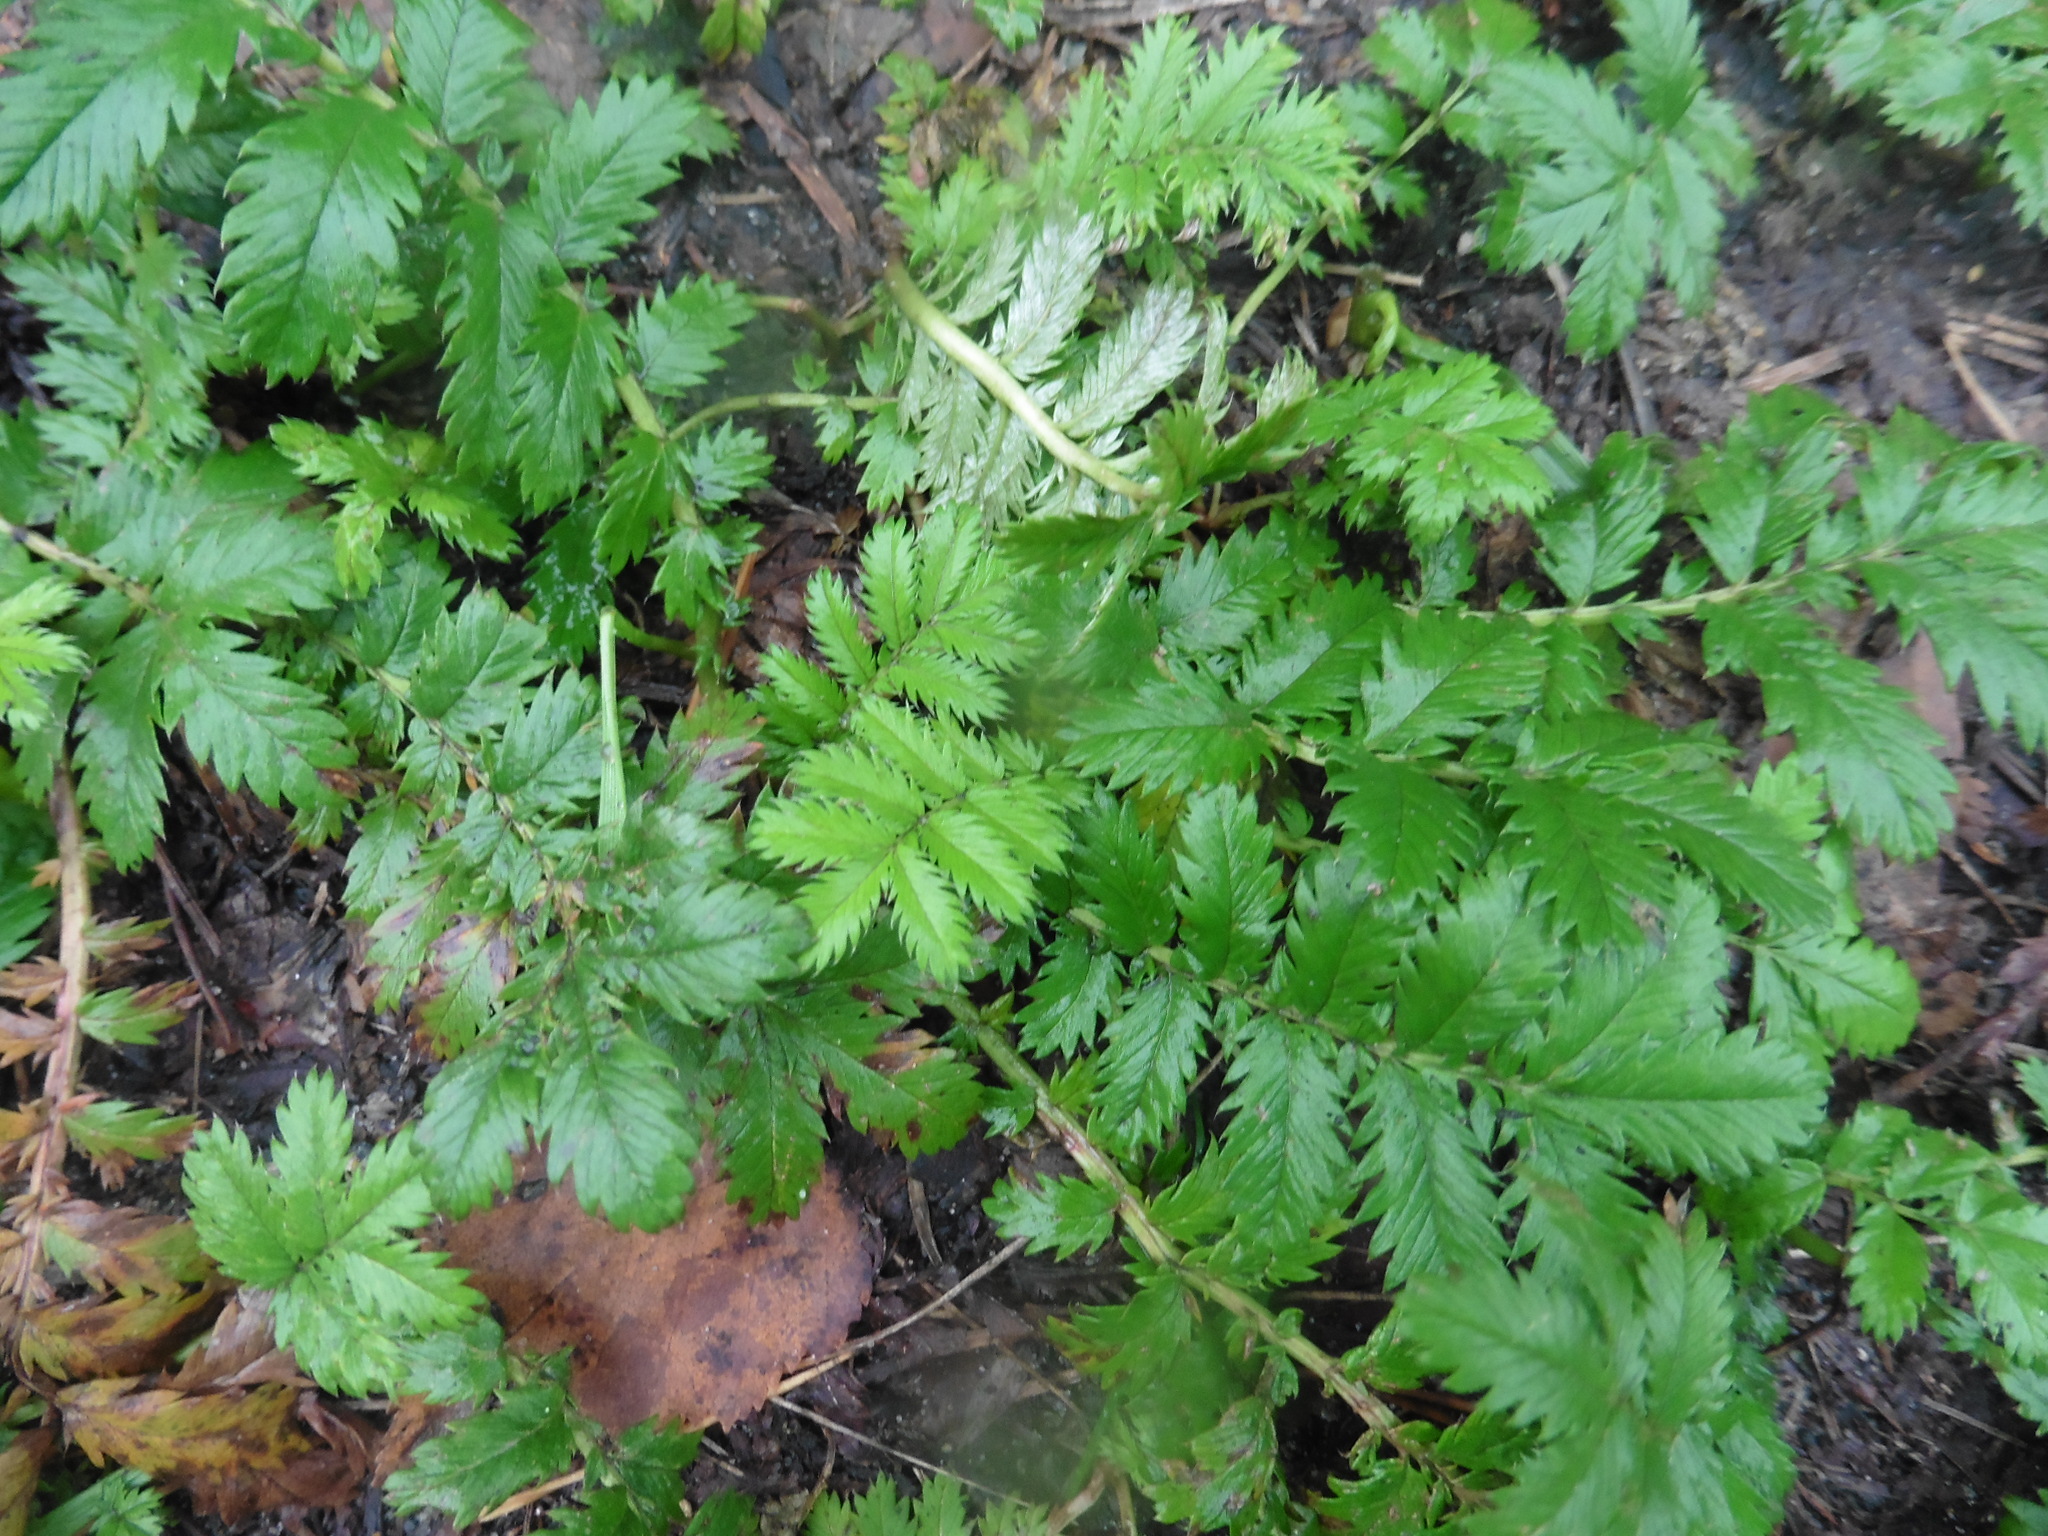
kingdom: Plantae
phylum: Tracheophyta
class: Magnoliopsida
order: Rosales
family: Rosaceae
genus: Argentina
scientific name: Argentina anserina
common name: Common silverweed
